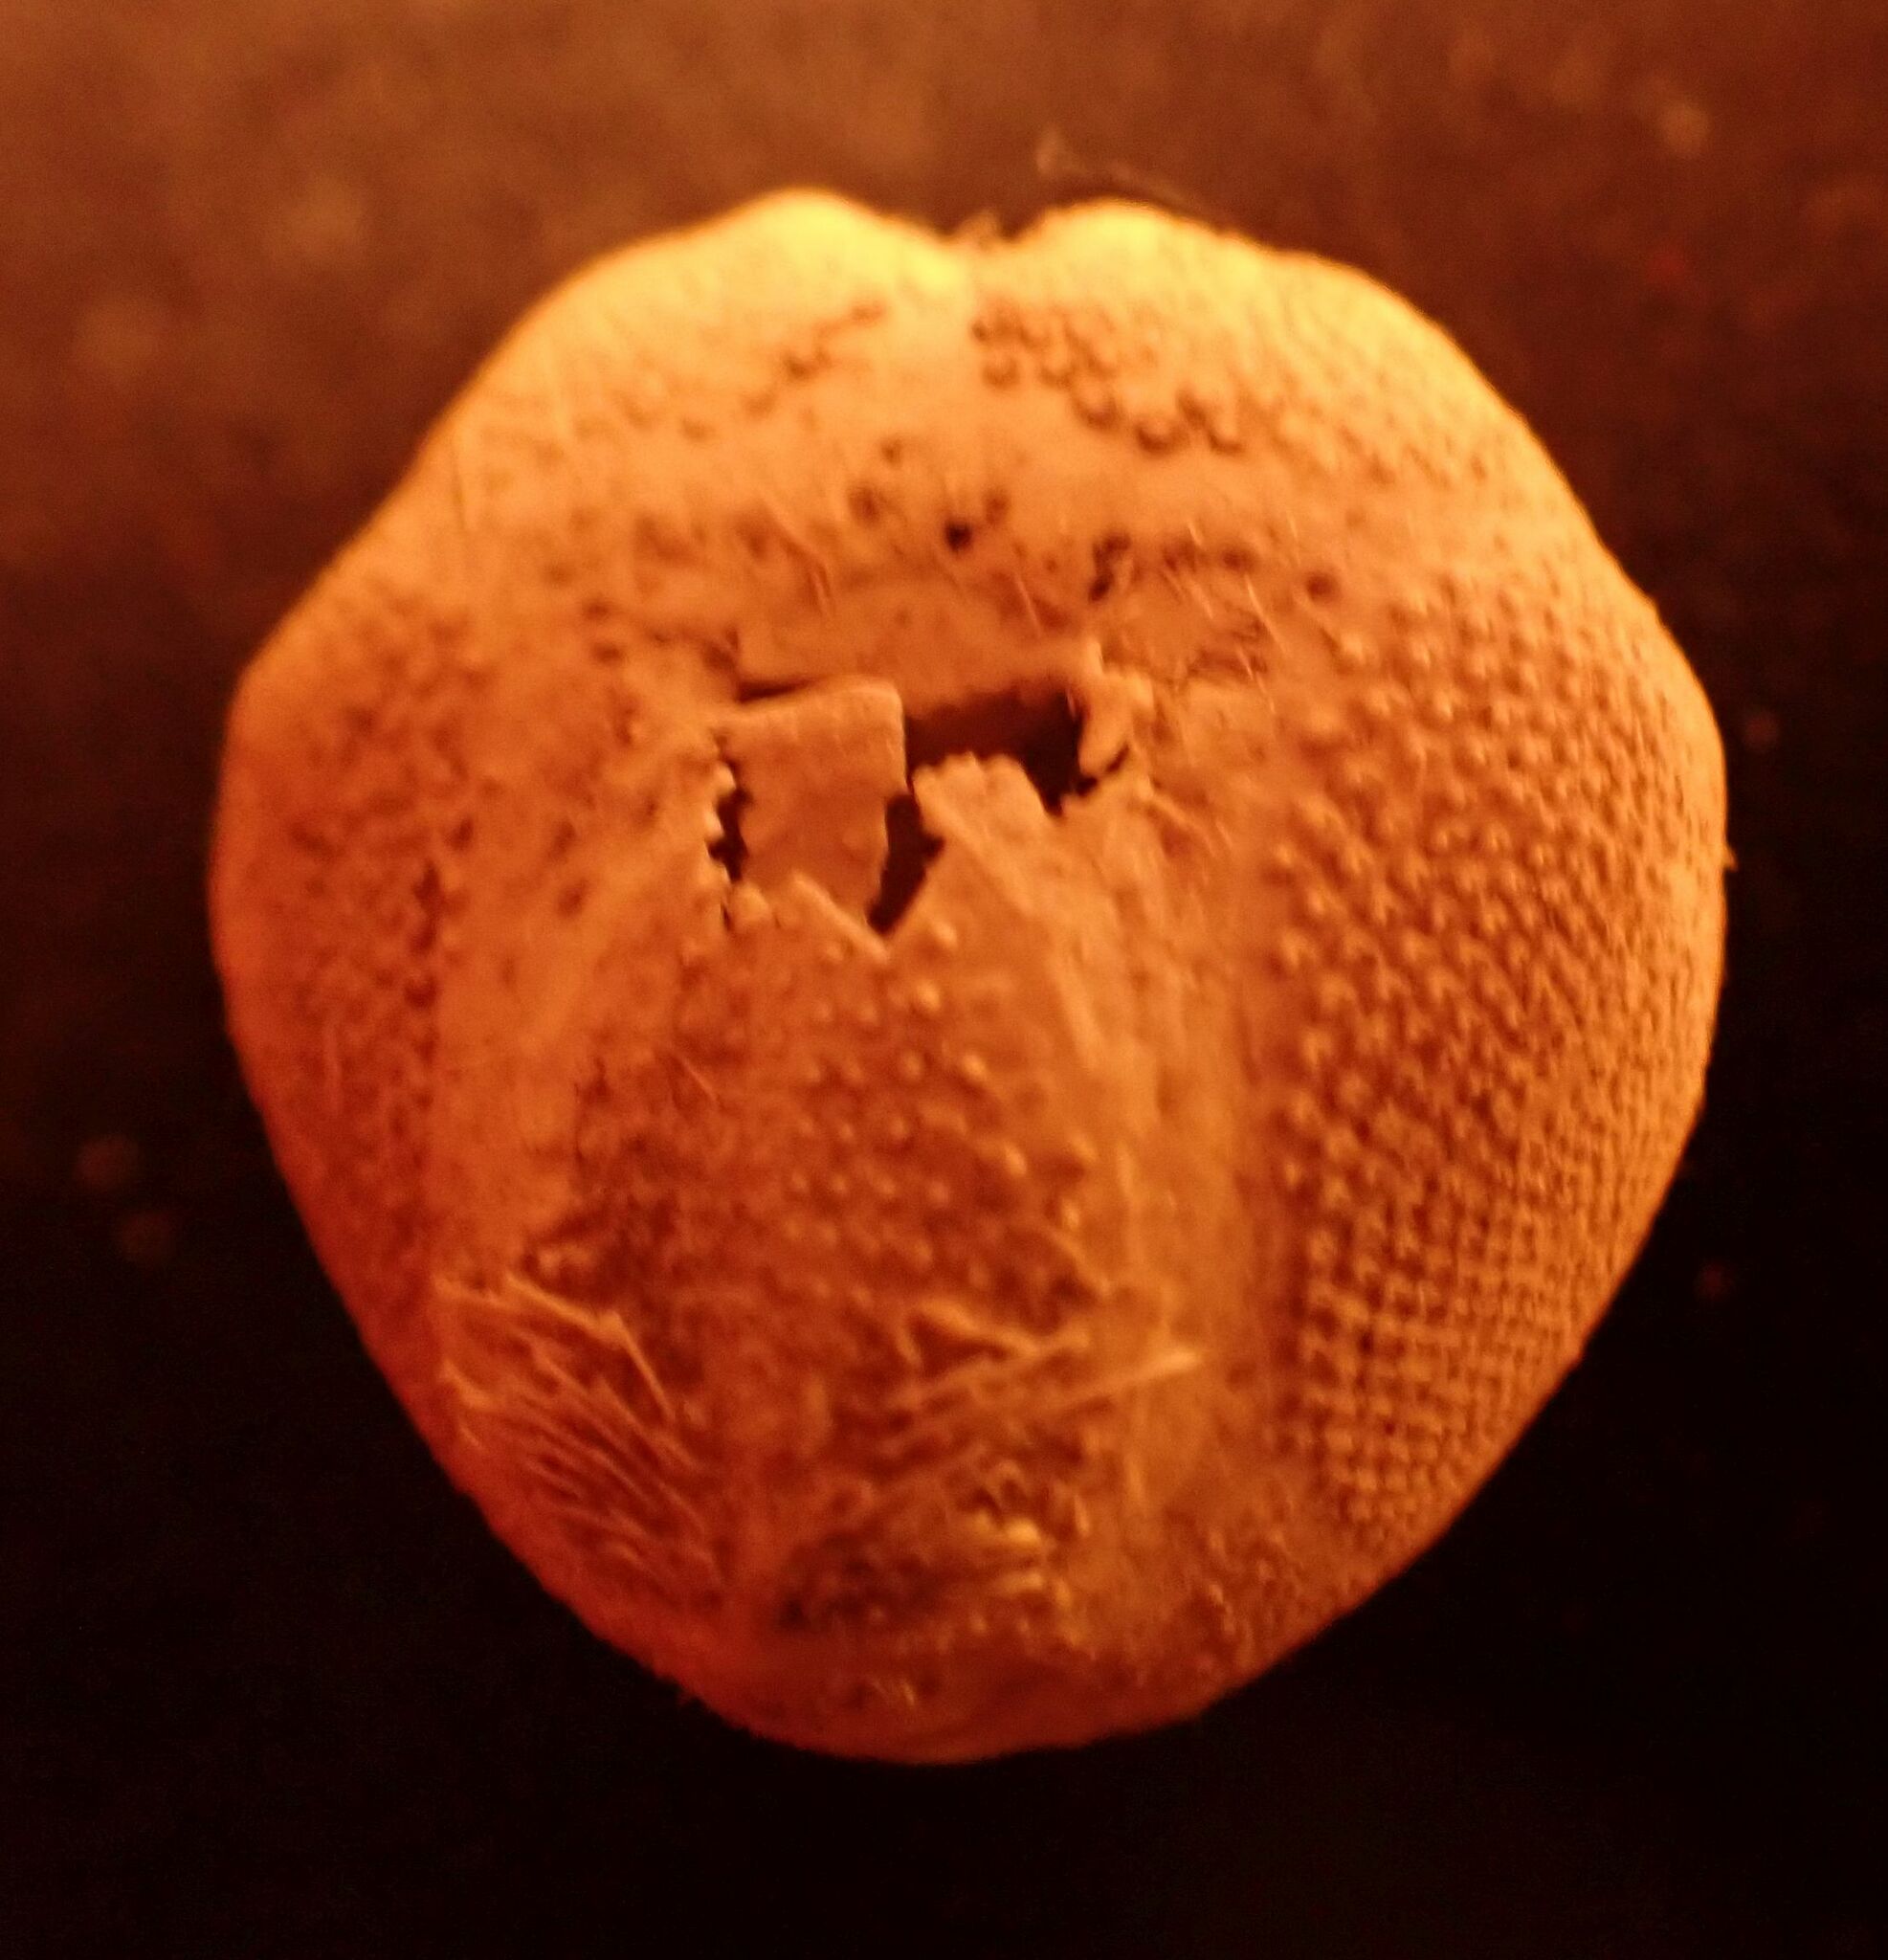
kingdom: Animalia
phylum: Echinodermata
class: Echinoidea
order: Spatangoida
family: Loveniidae
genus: Echinocardium
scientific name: Echinocardium cordatum
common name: Heart-urchin
